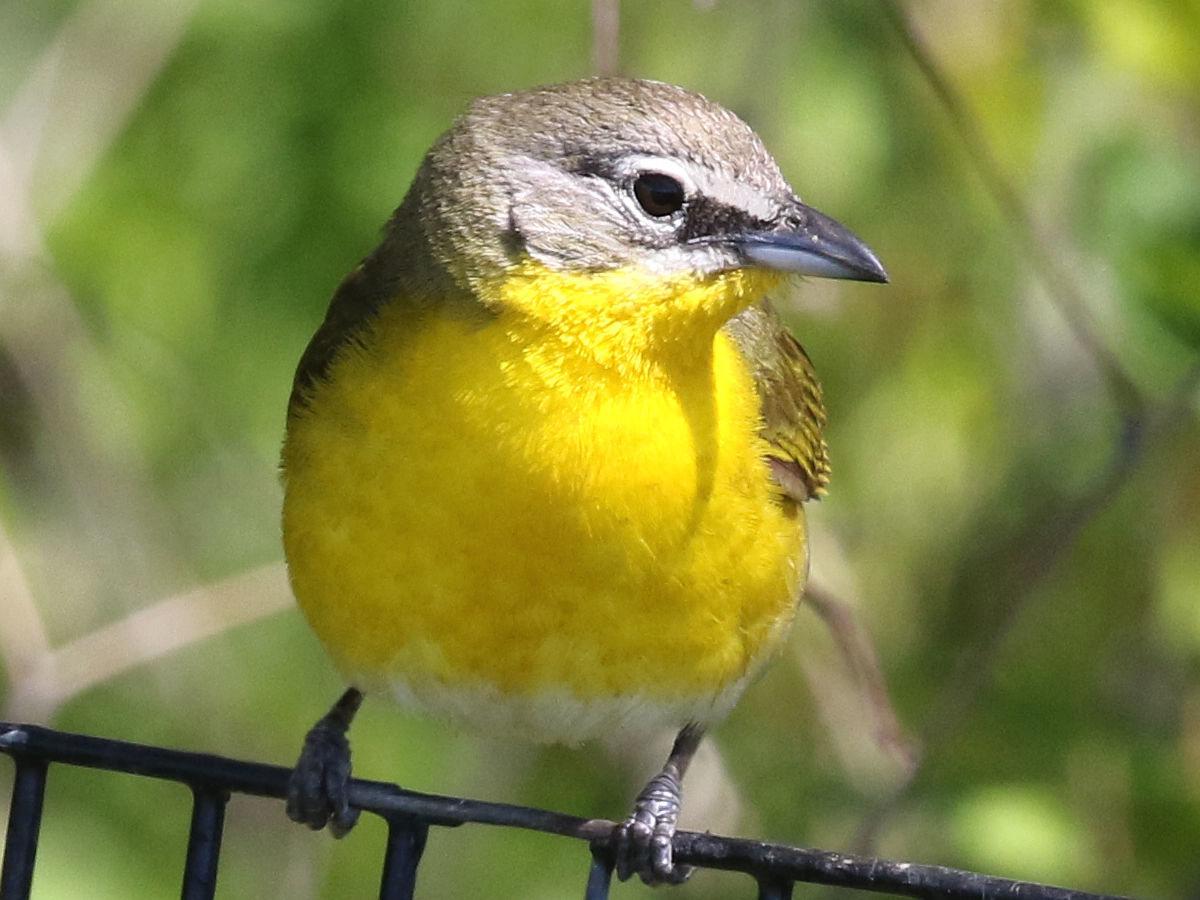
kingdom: Animalia
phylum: Chordata
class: Aves
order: Passeriformes
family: Parulidae
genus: Icteria
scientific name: Icteria virens
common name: Yellow-breasted chat
